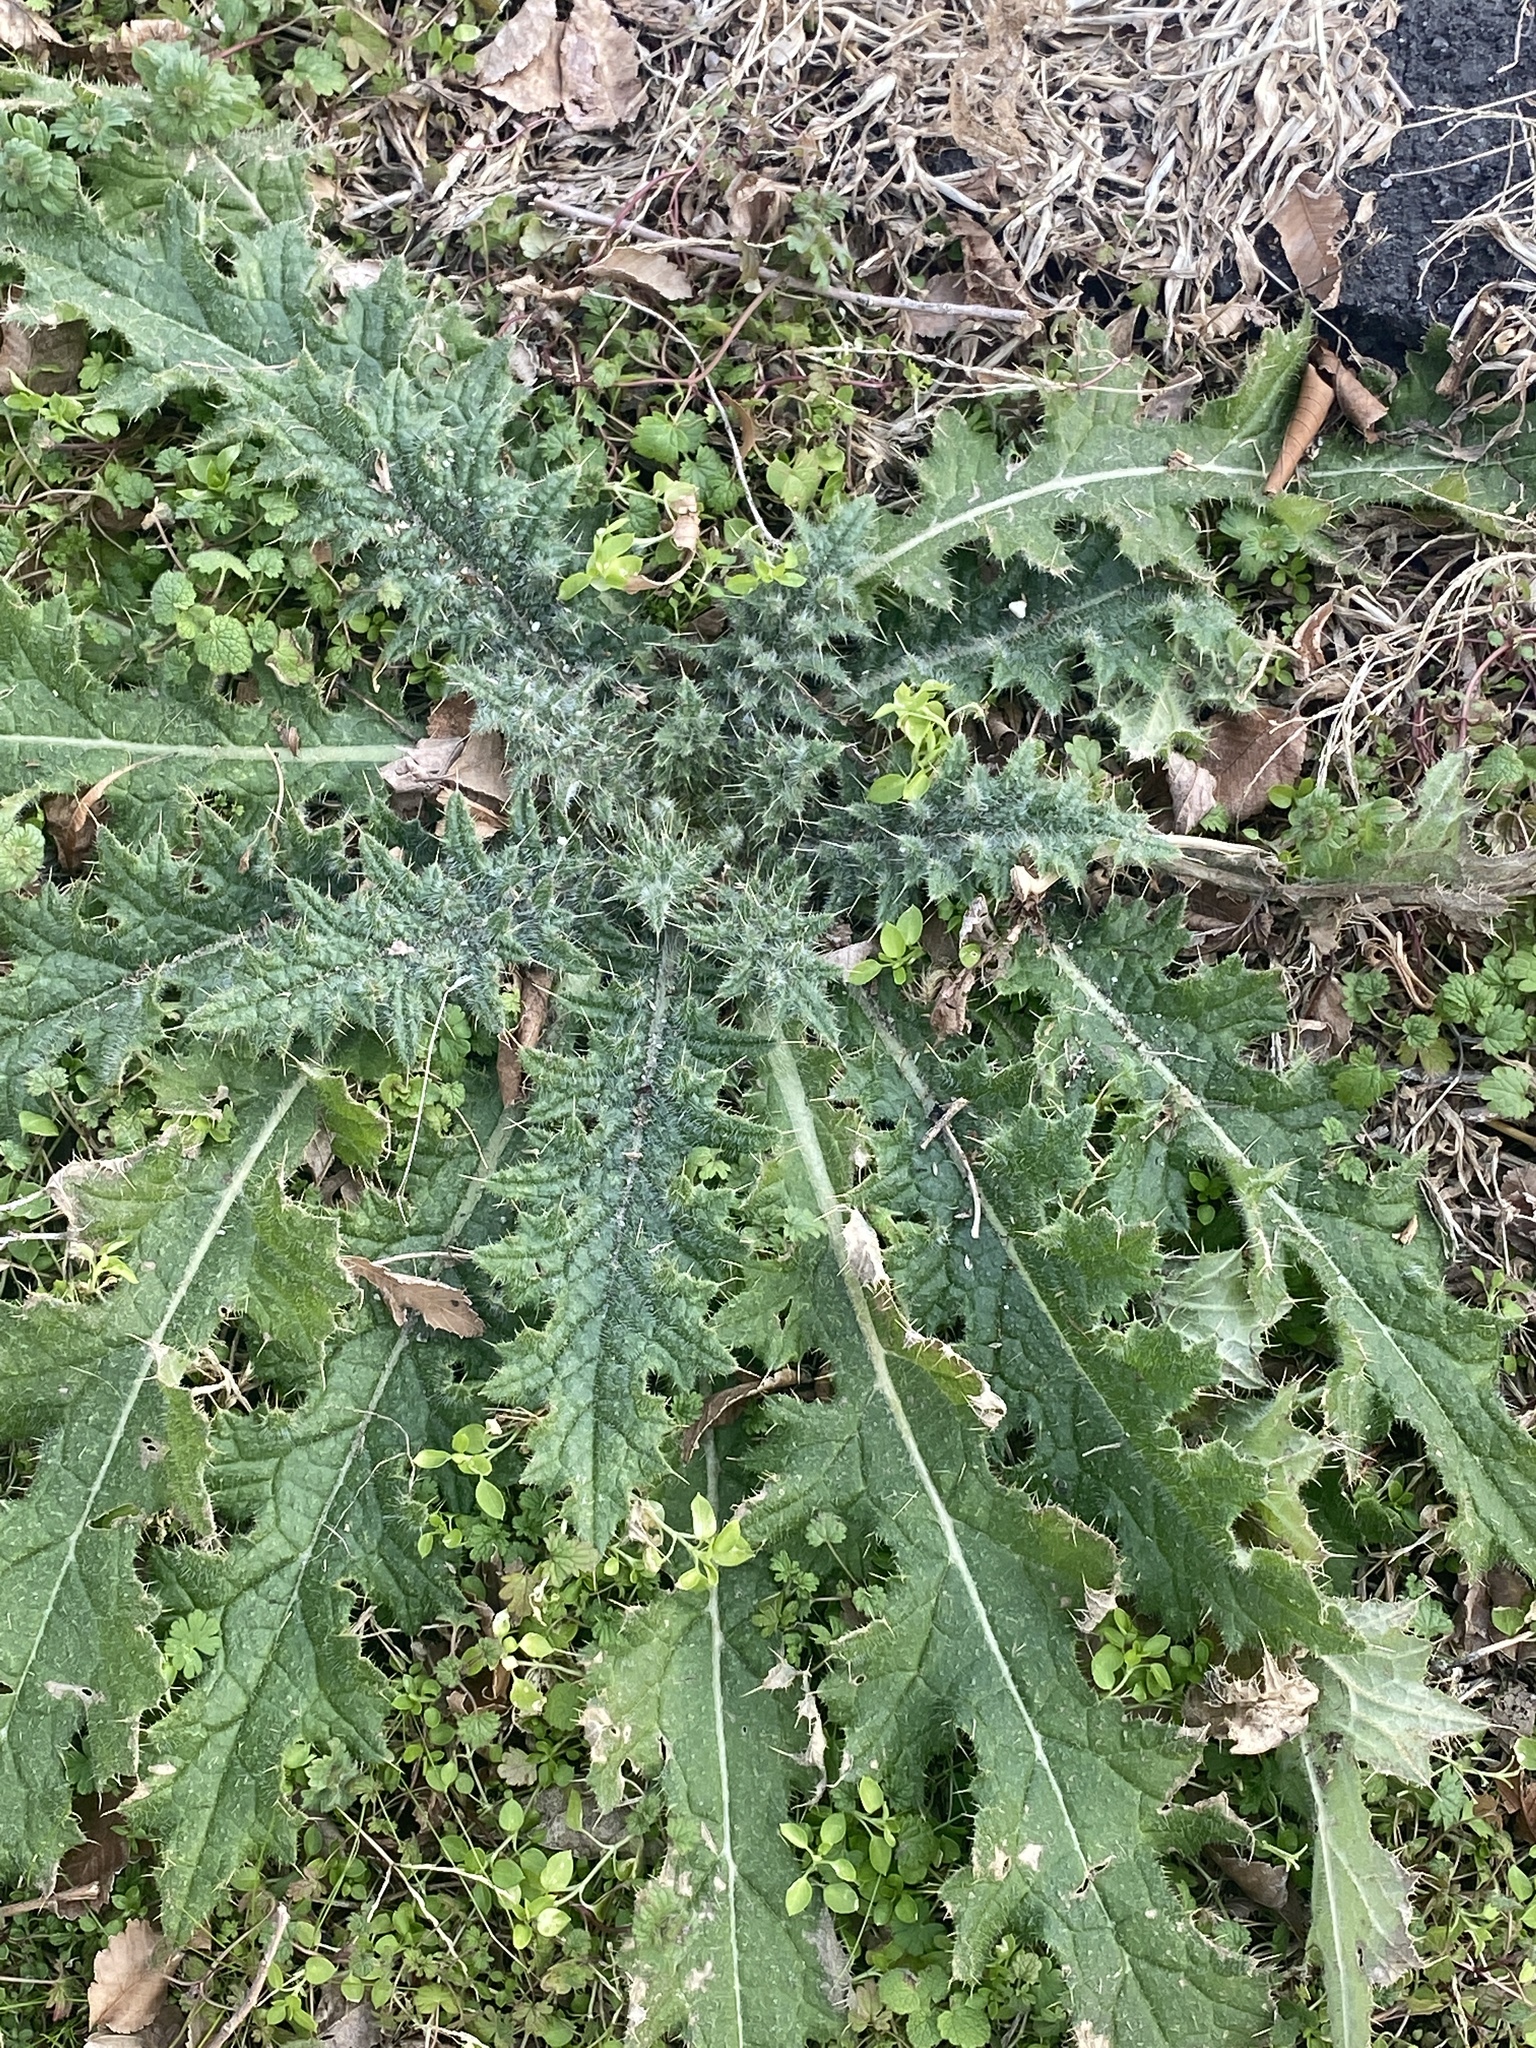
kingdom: Plantae
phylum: Tracheophyta
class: Magnoliopsida
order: Asterales
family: Asteraceae
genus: Cirsium
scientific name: Cirsium vulgare
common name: Bull thistle
